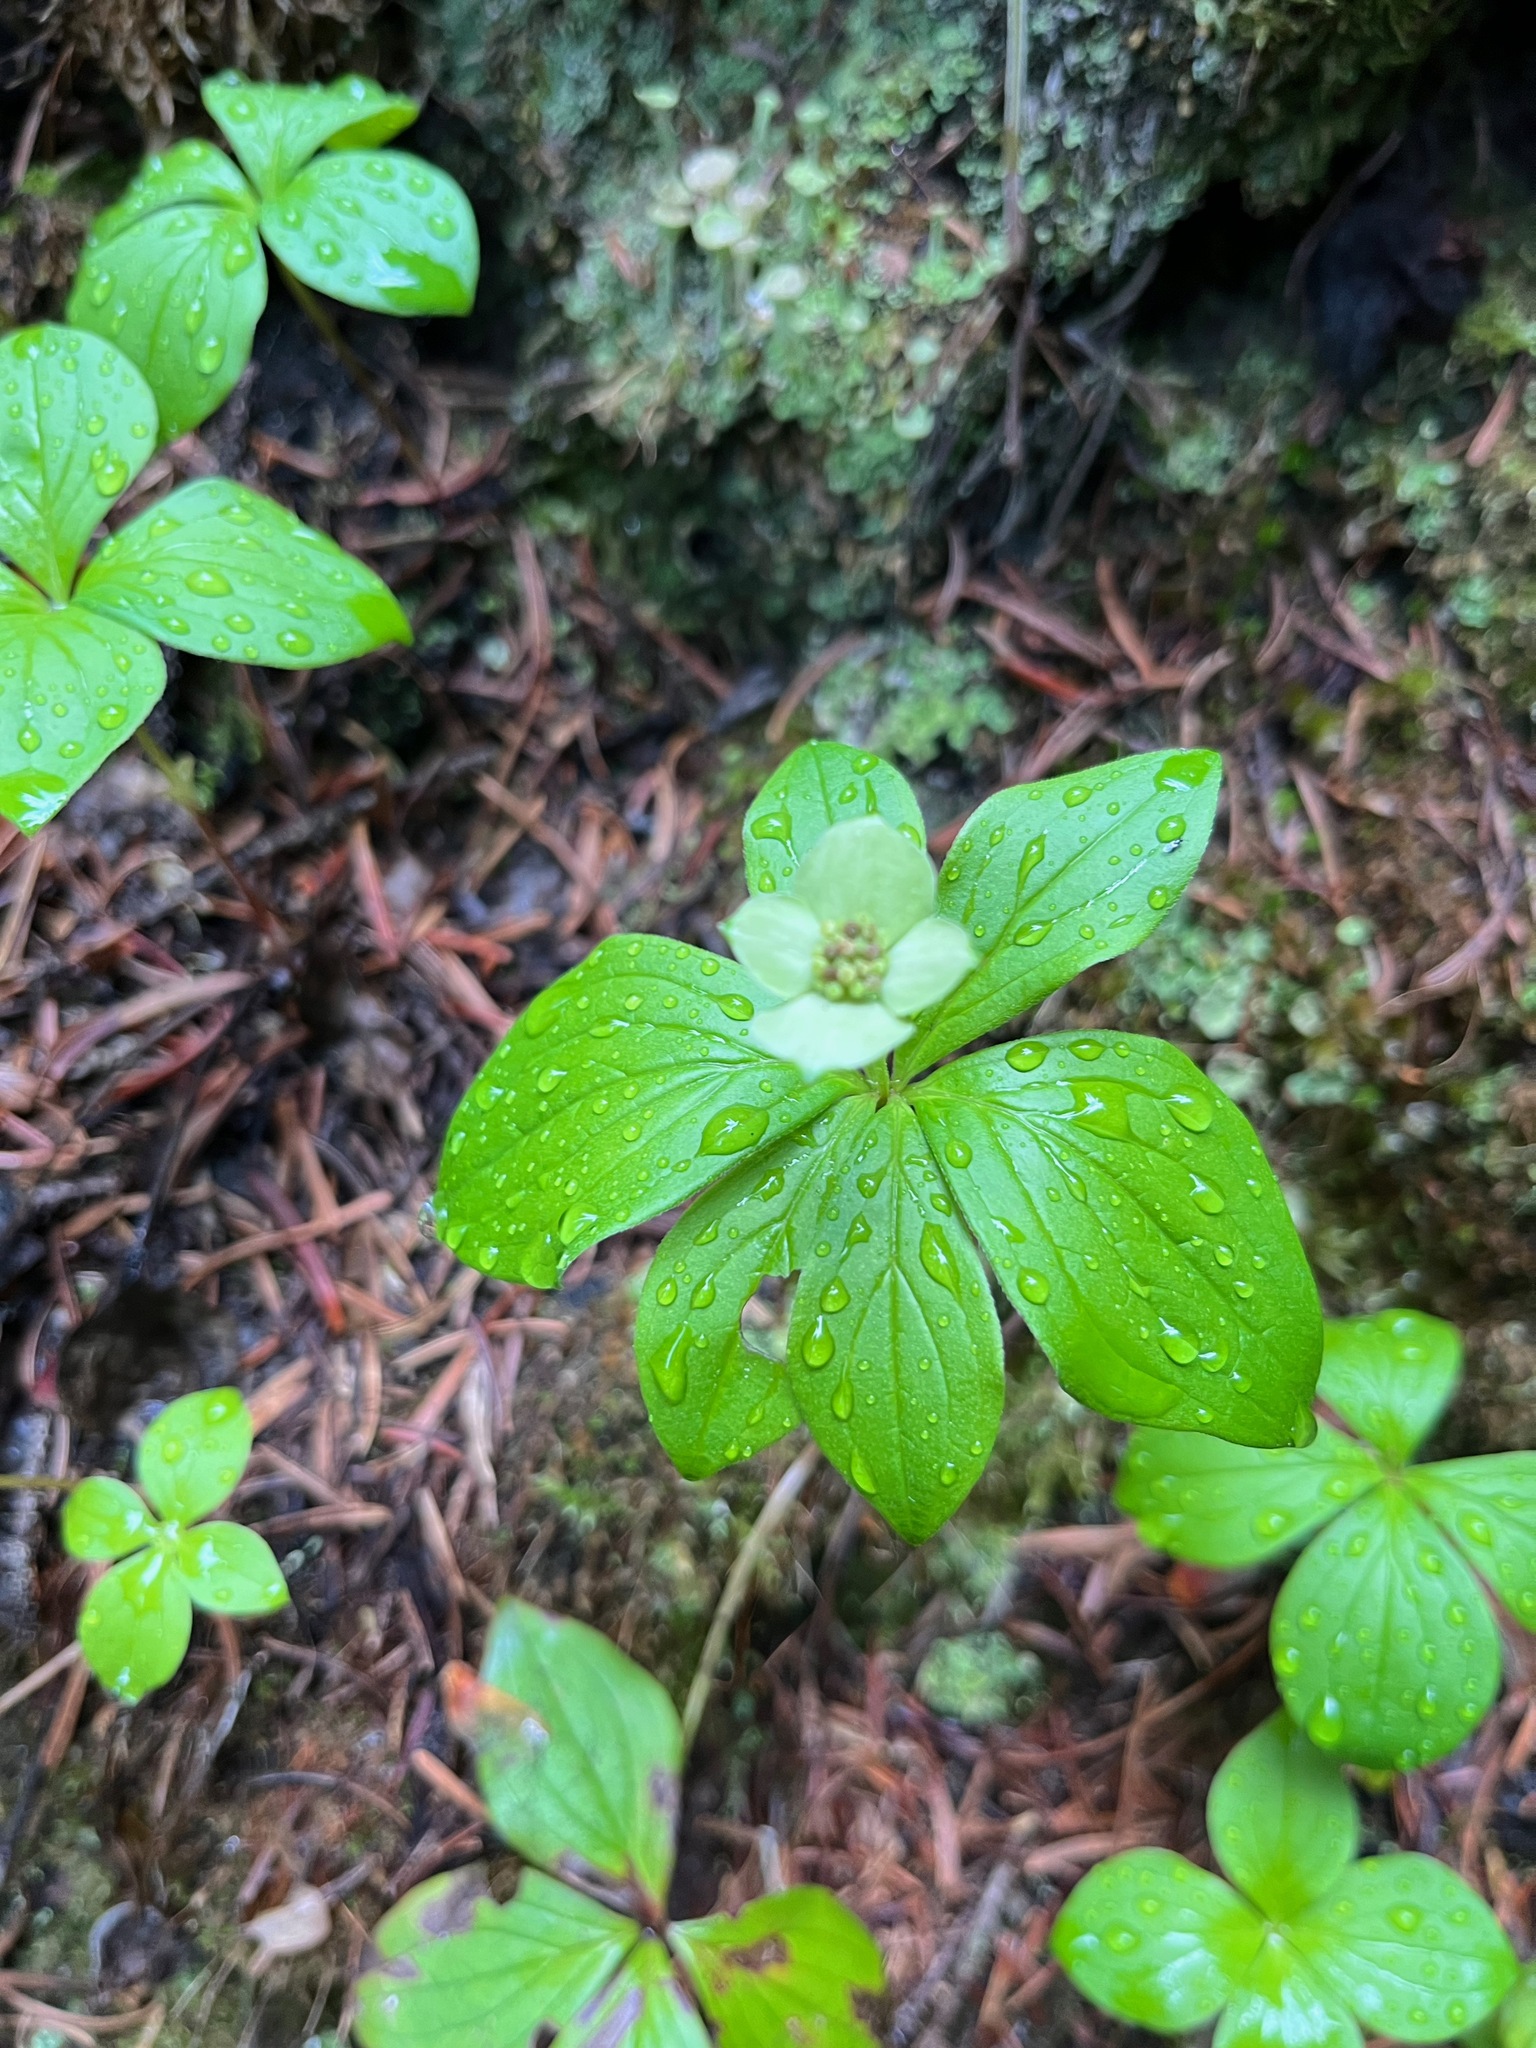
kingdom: Plantae
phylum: Tracheophyta
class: Magnoliopsida
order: Cornales
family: Cornaceae
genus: Cornus
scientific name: Cornus canadensis
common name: Creeping dogwood
